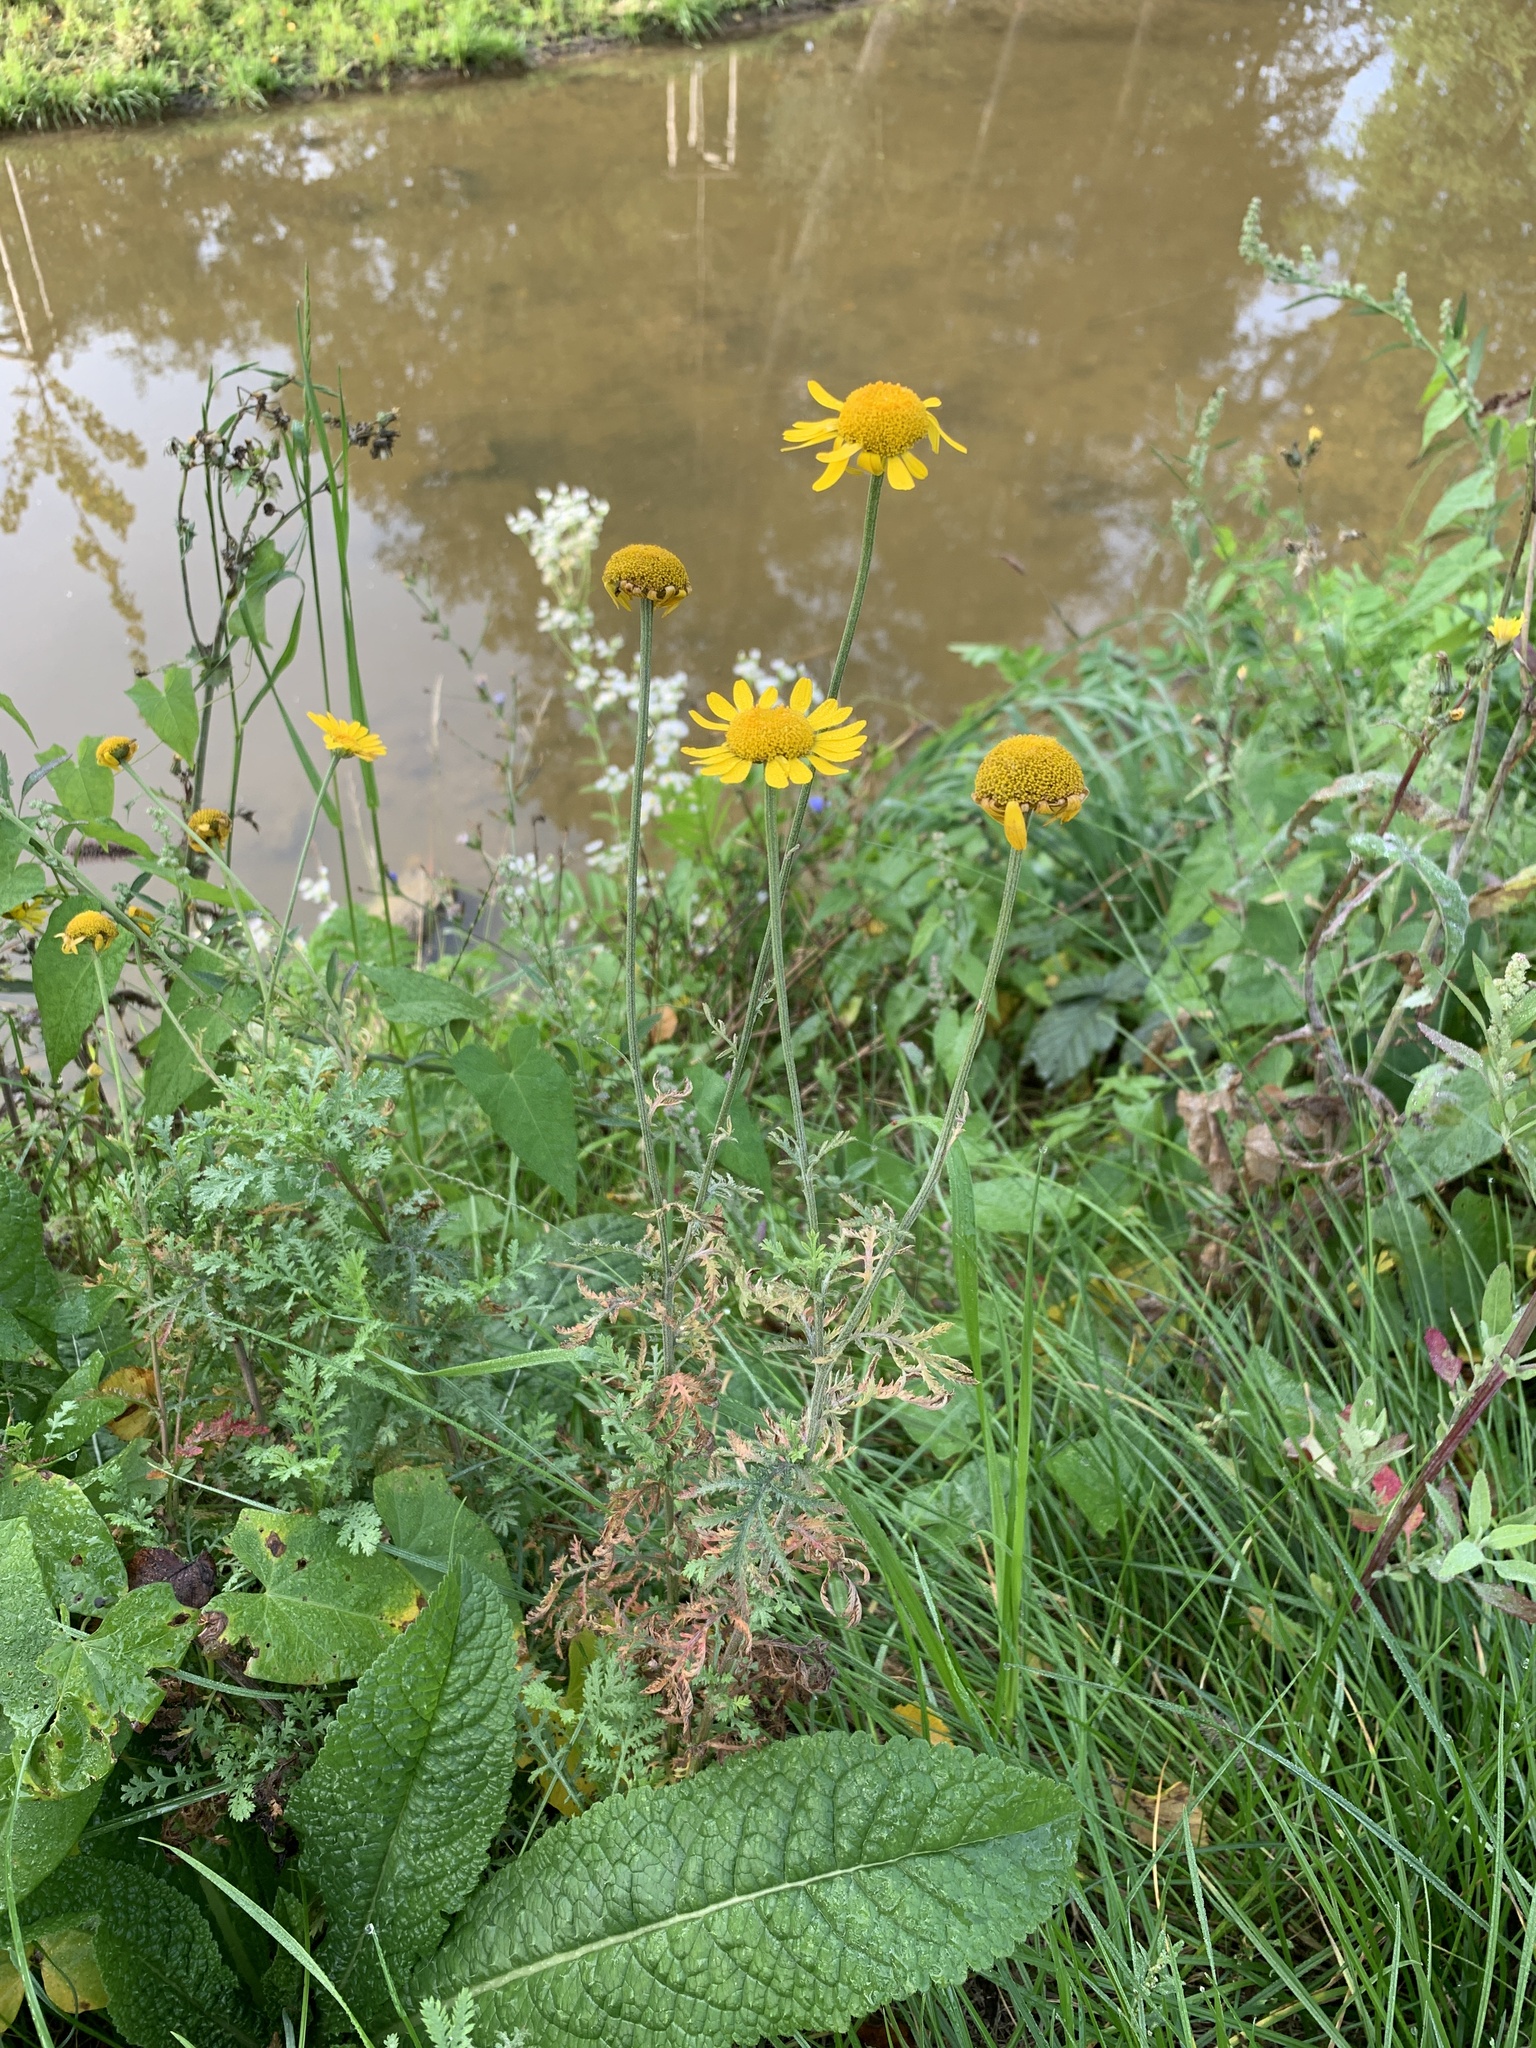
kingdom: Plantae
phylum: Tracheophyta
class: Magnoliopsida
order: Asterales
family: Asteraceae
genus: Cota
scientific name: Cota tinctoria
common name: Golden chamomile
